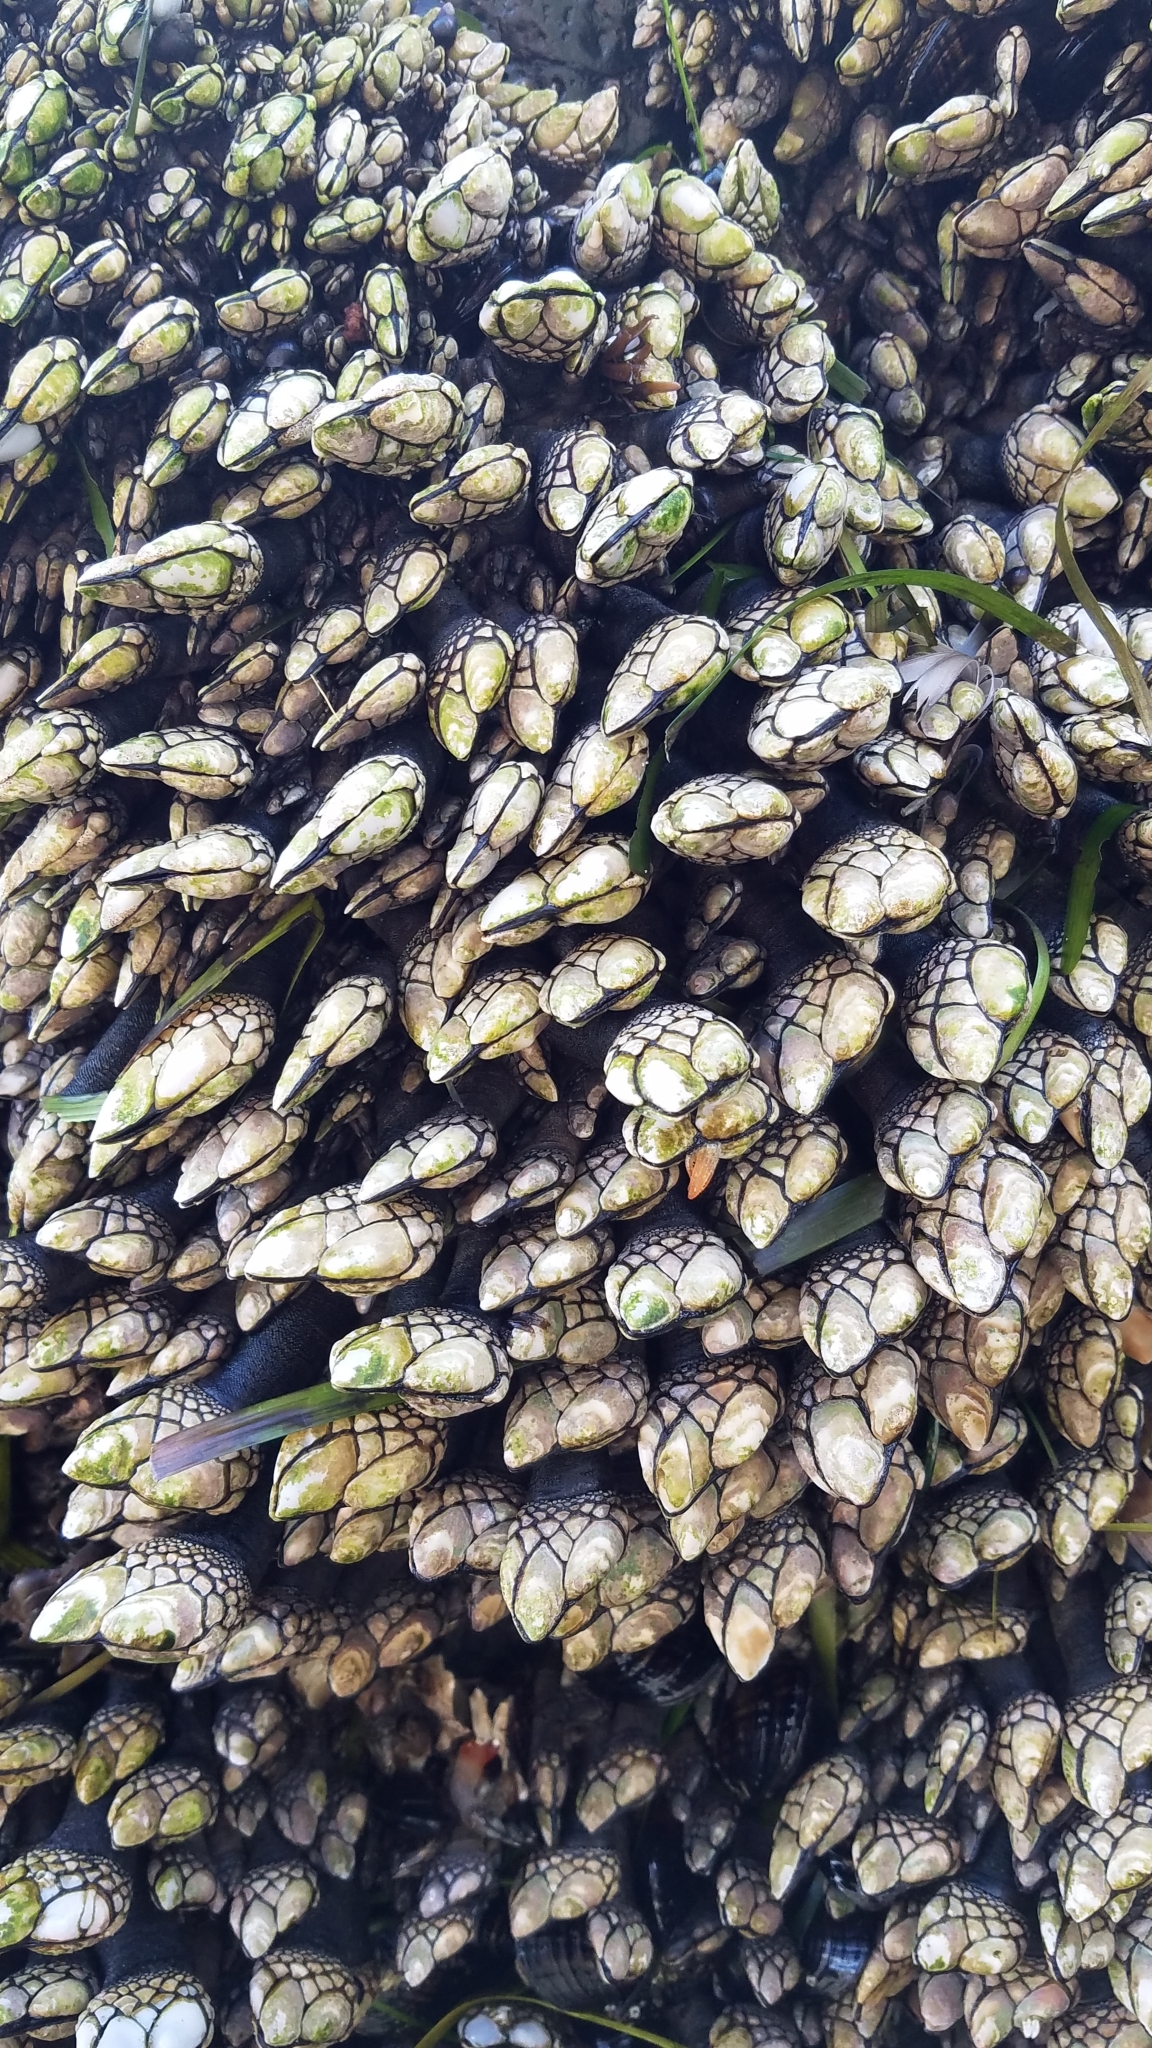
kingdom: Animalia
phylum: Arthropoda
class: Maxillopoda
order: Pedunculata
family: Pollicipedidae
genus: Pollicipes
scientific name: Pollicipes polymerus
